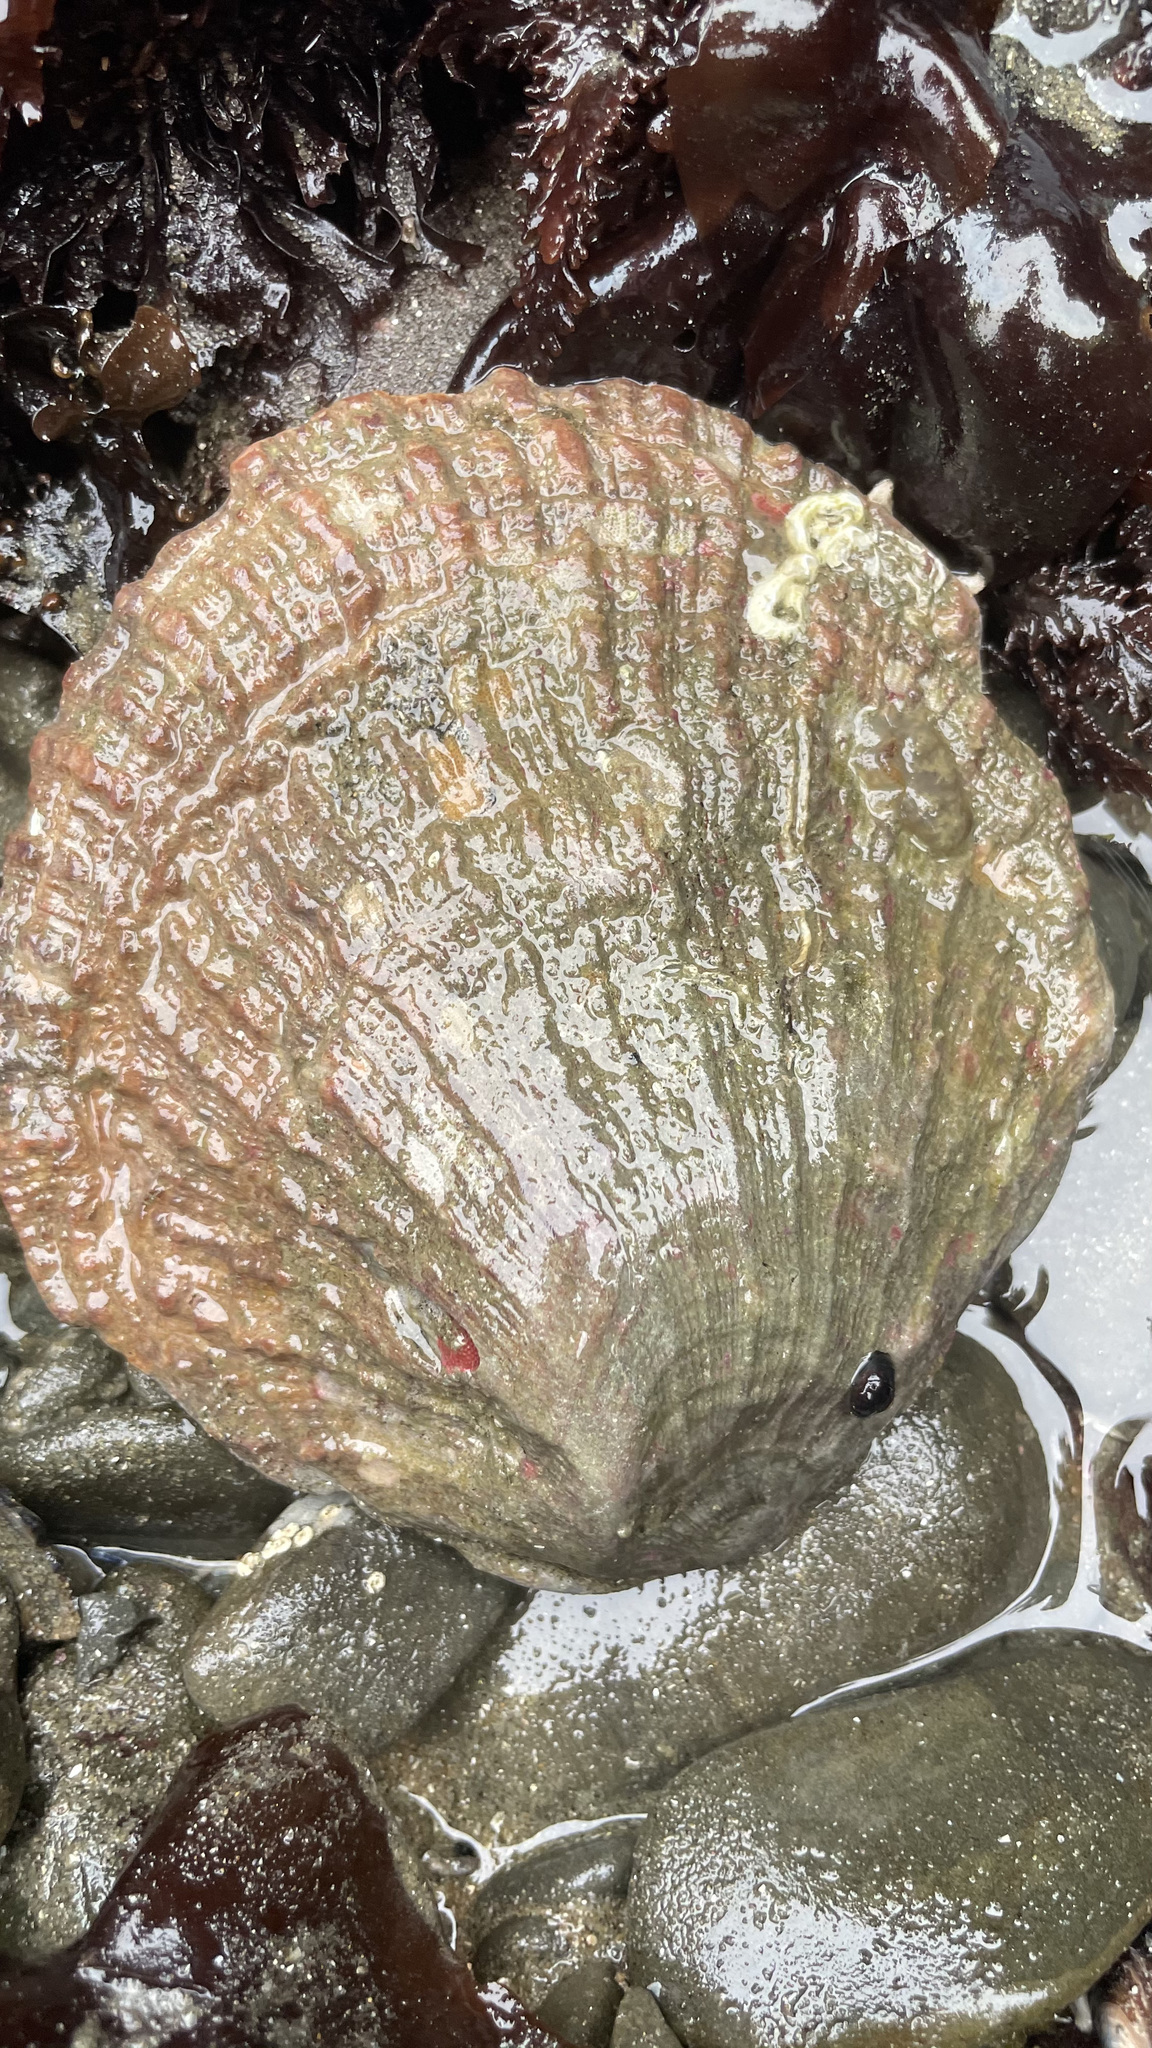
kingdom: Animalia
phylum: Mollusca
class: Bivalvia
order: Pectinida
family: Pectinidae
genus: Crassadoma
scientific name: Crassadoma gigantea
